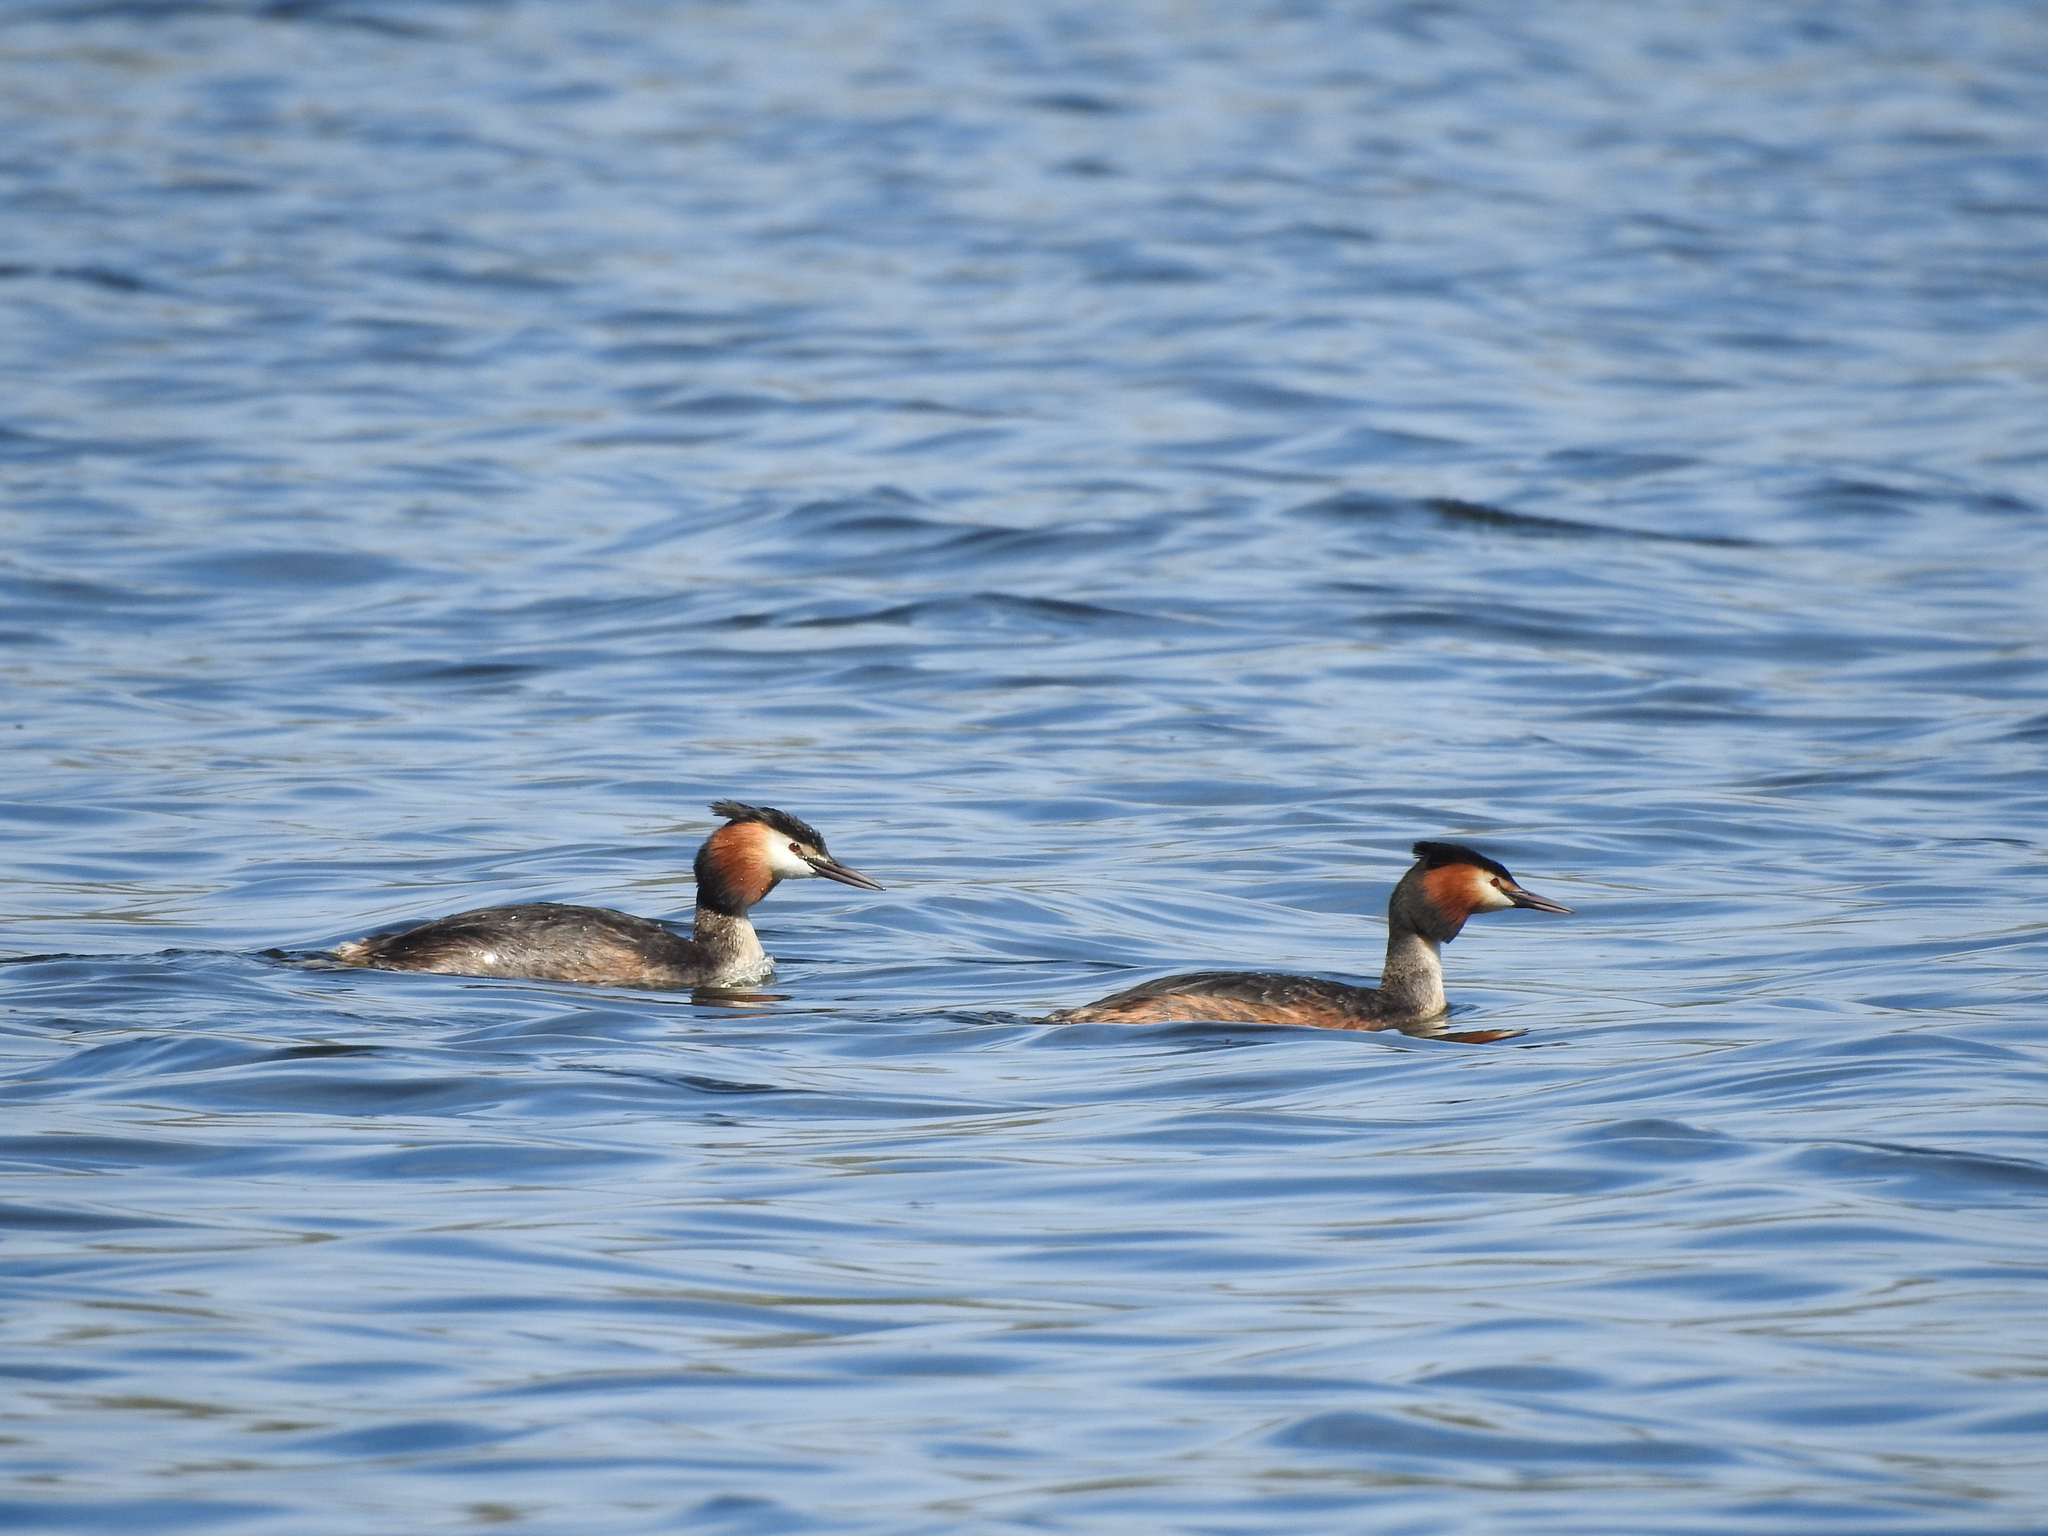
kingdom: Animalia
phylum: Chordata
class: Aves
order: Podicipediformes
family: Podicipedidae
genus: Podiceps
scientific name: Podiceps cristatus
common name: Great crested grebe
